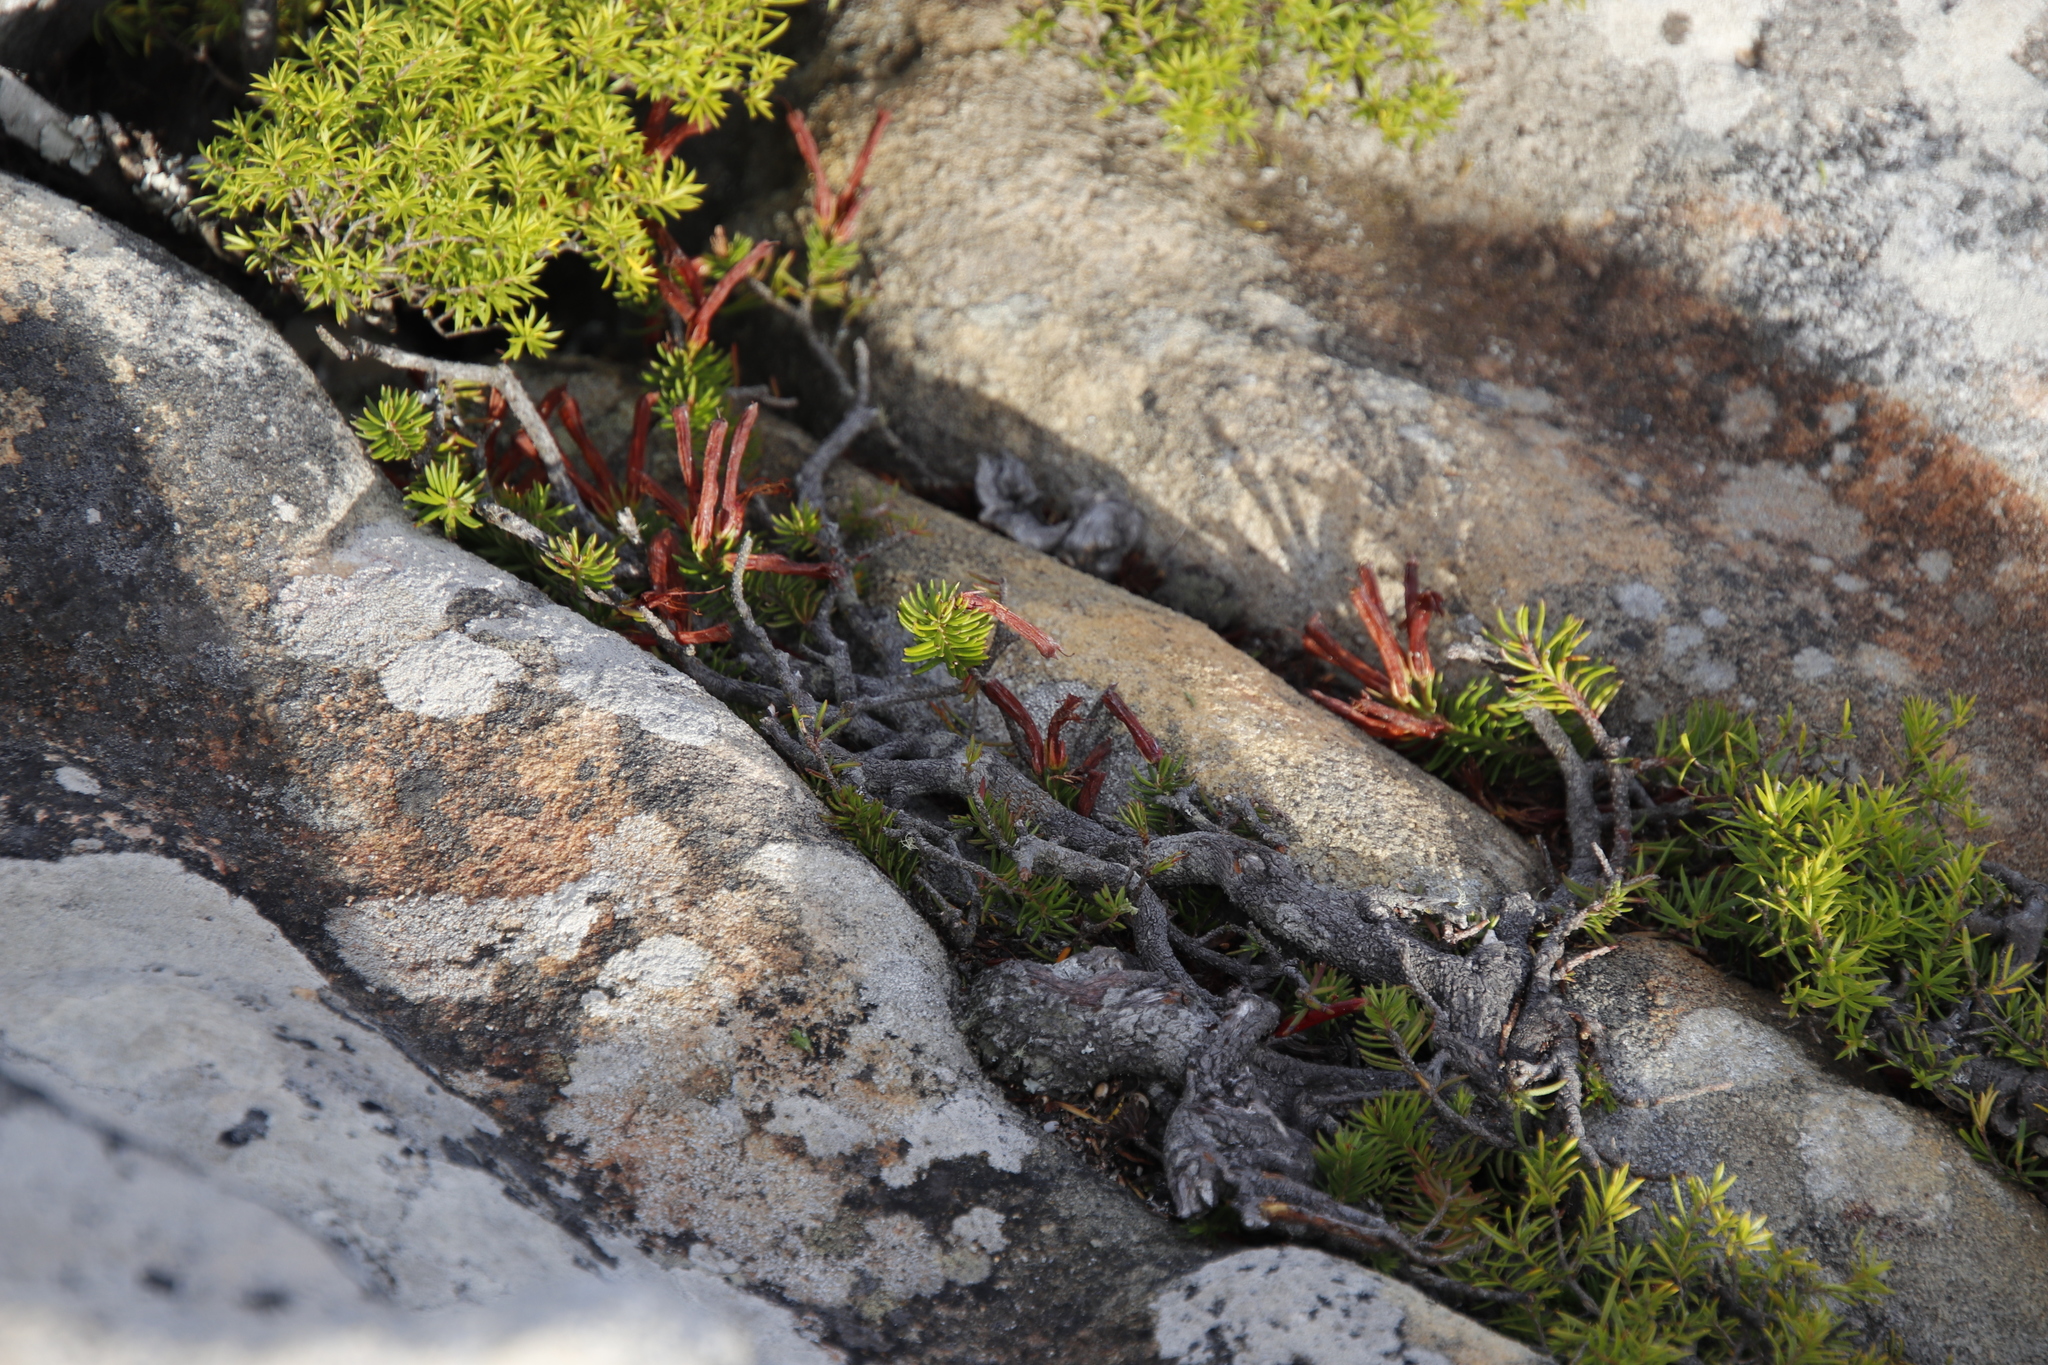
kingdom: Plantae
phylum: Tracheophyta
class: Magnoliopsida
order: Ericales
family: Ericaceae
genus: Erica
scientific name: Erica nevillei
